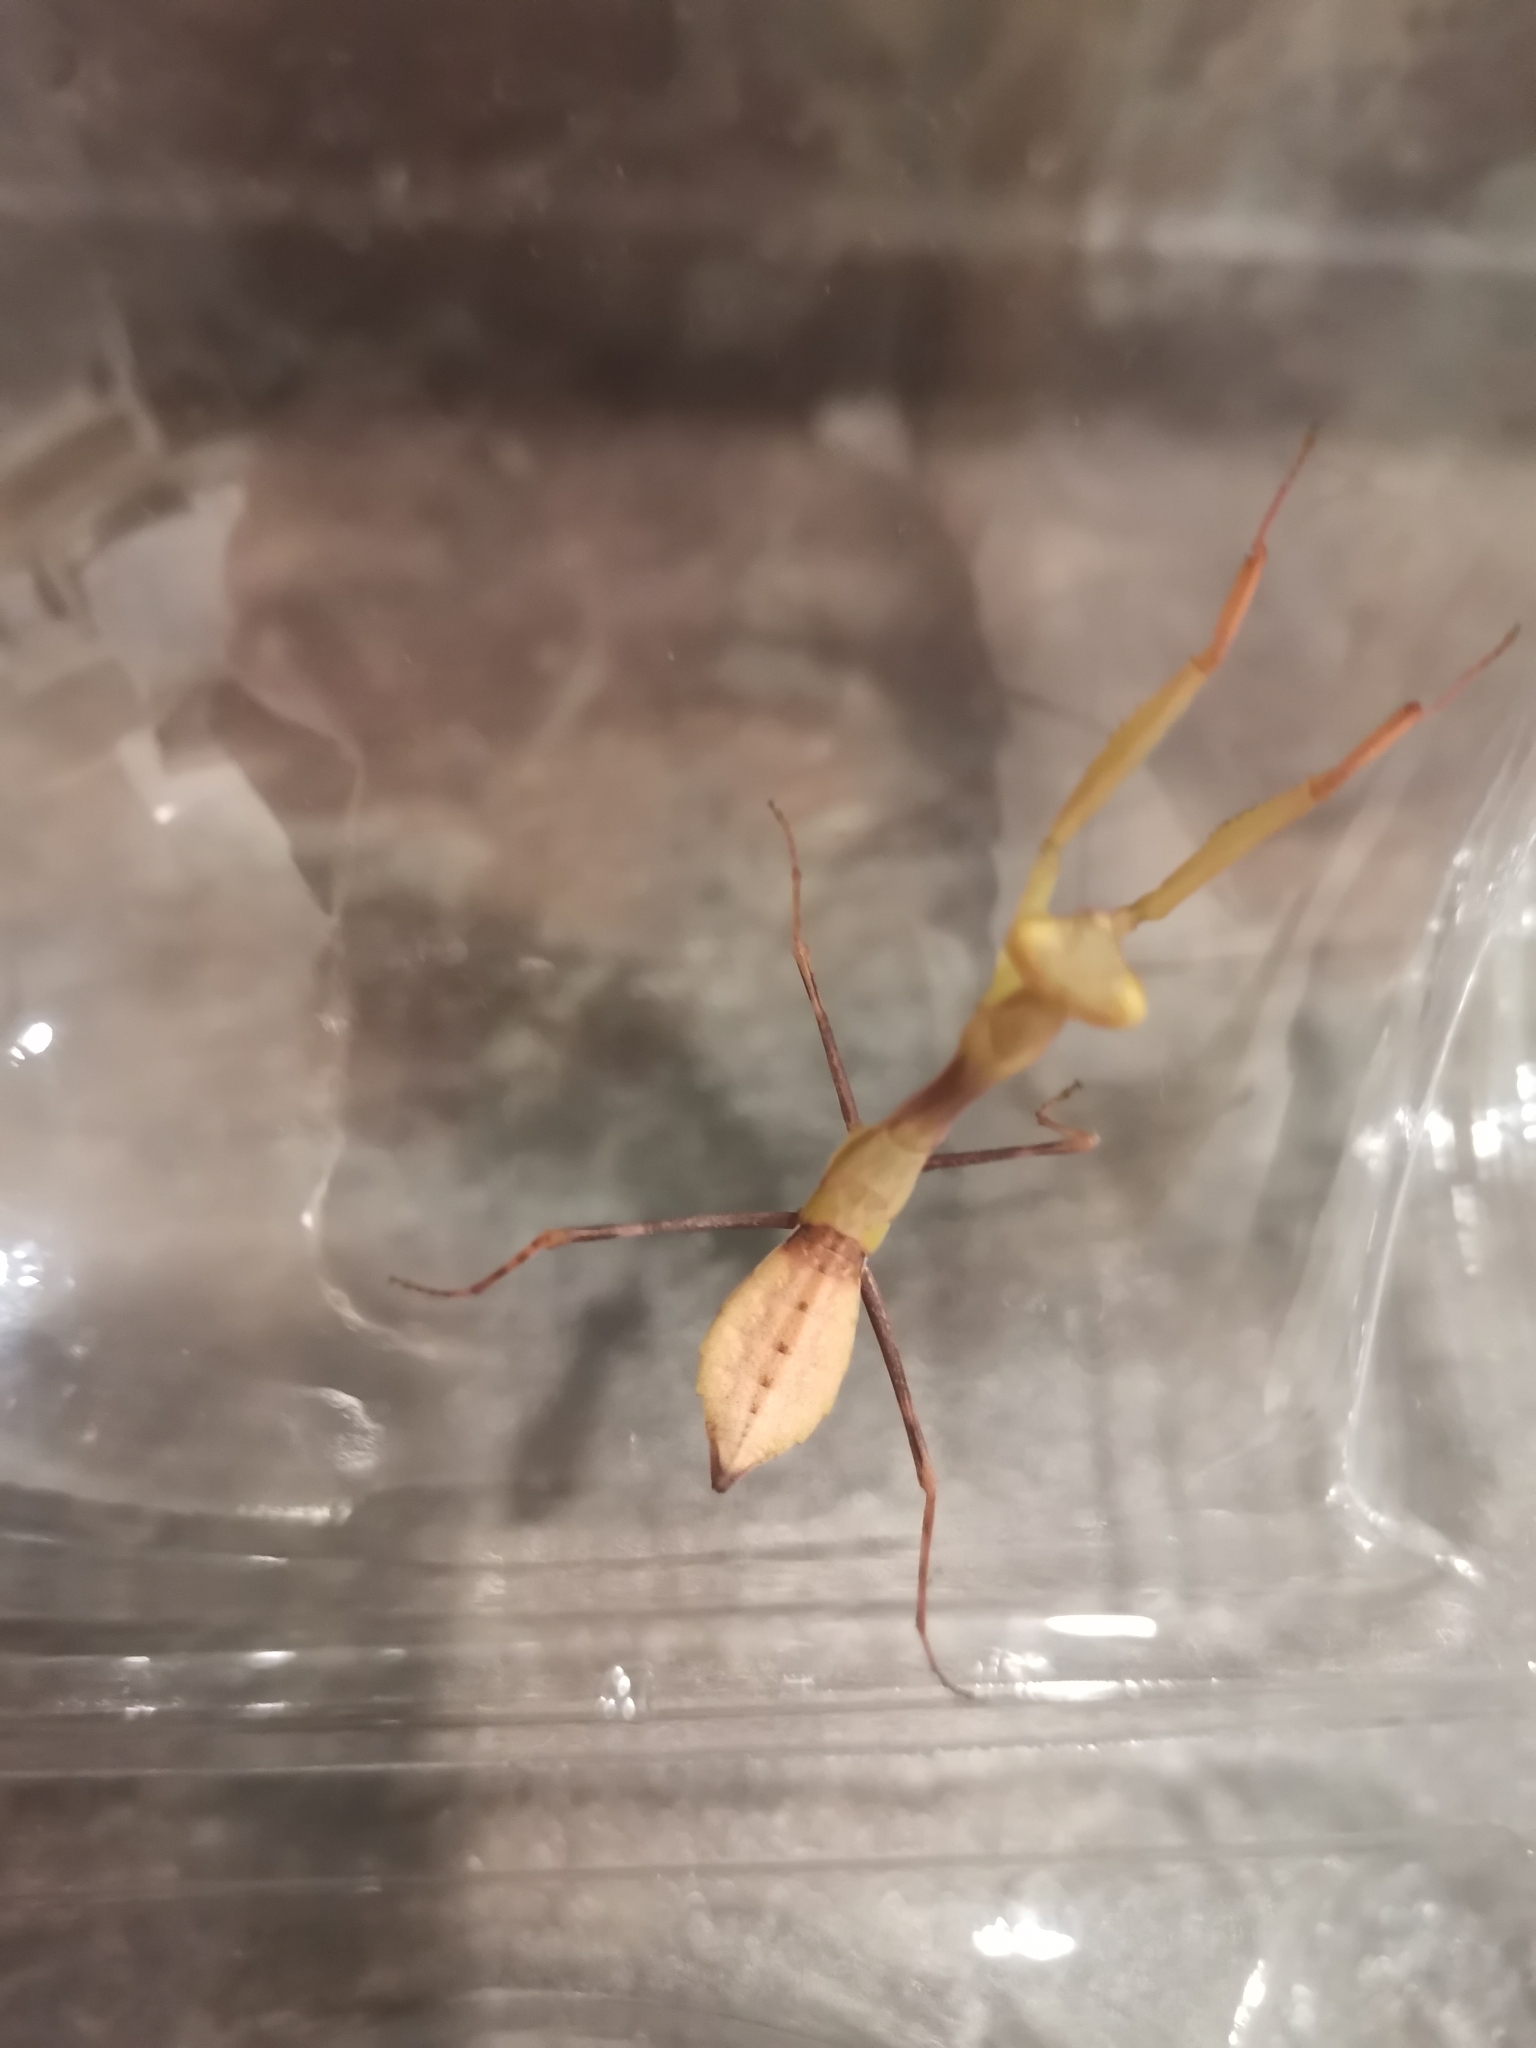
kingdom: Animalia
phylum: Arthropoda
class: Insecta
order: Mantodea
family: Miomantidae
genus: Miomantis
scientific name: Miomantis caffra
